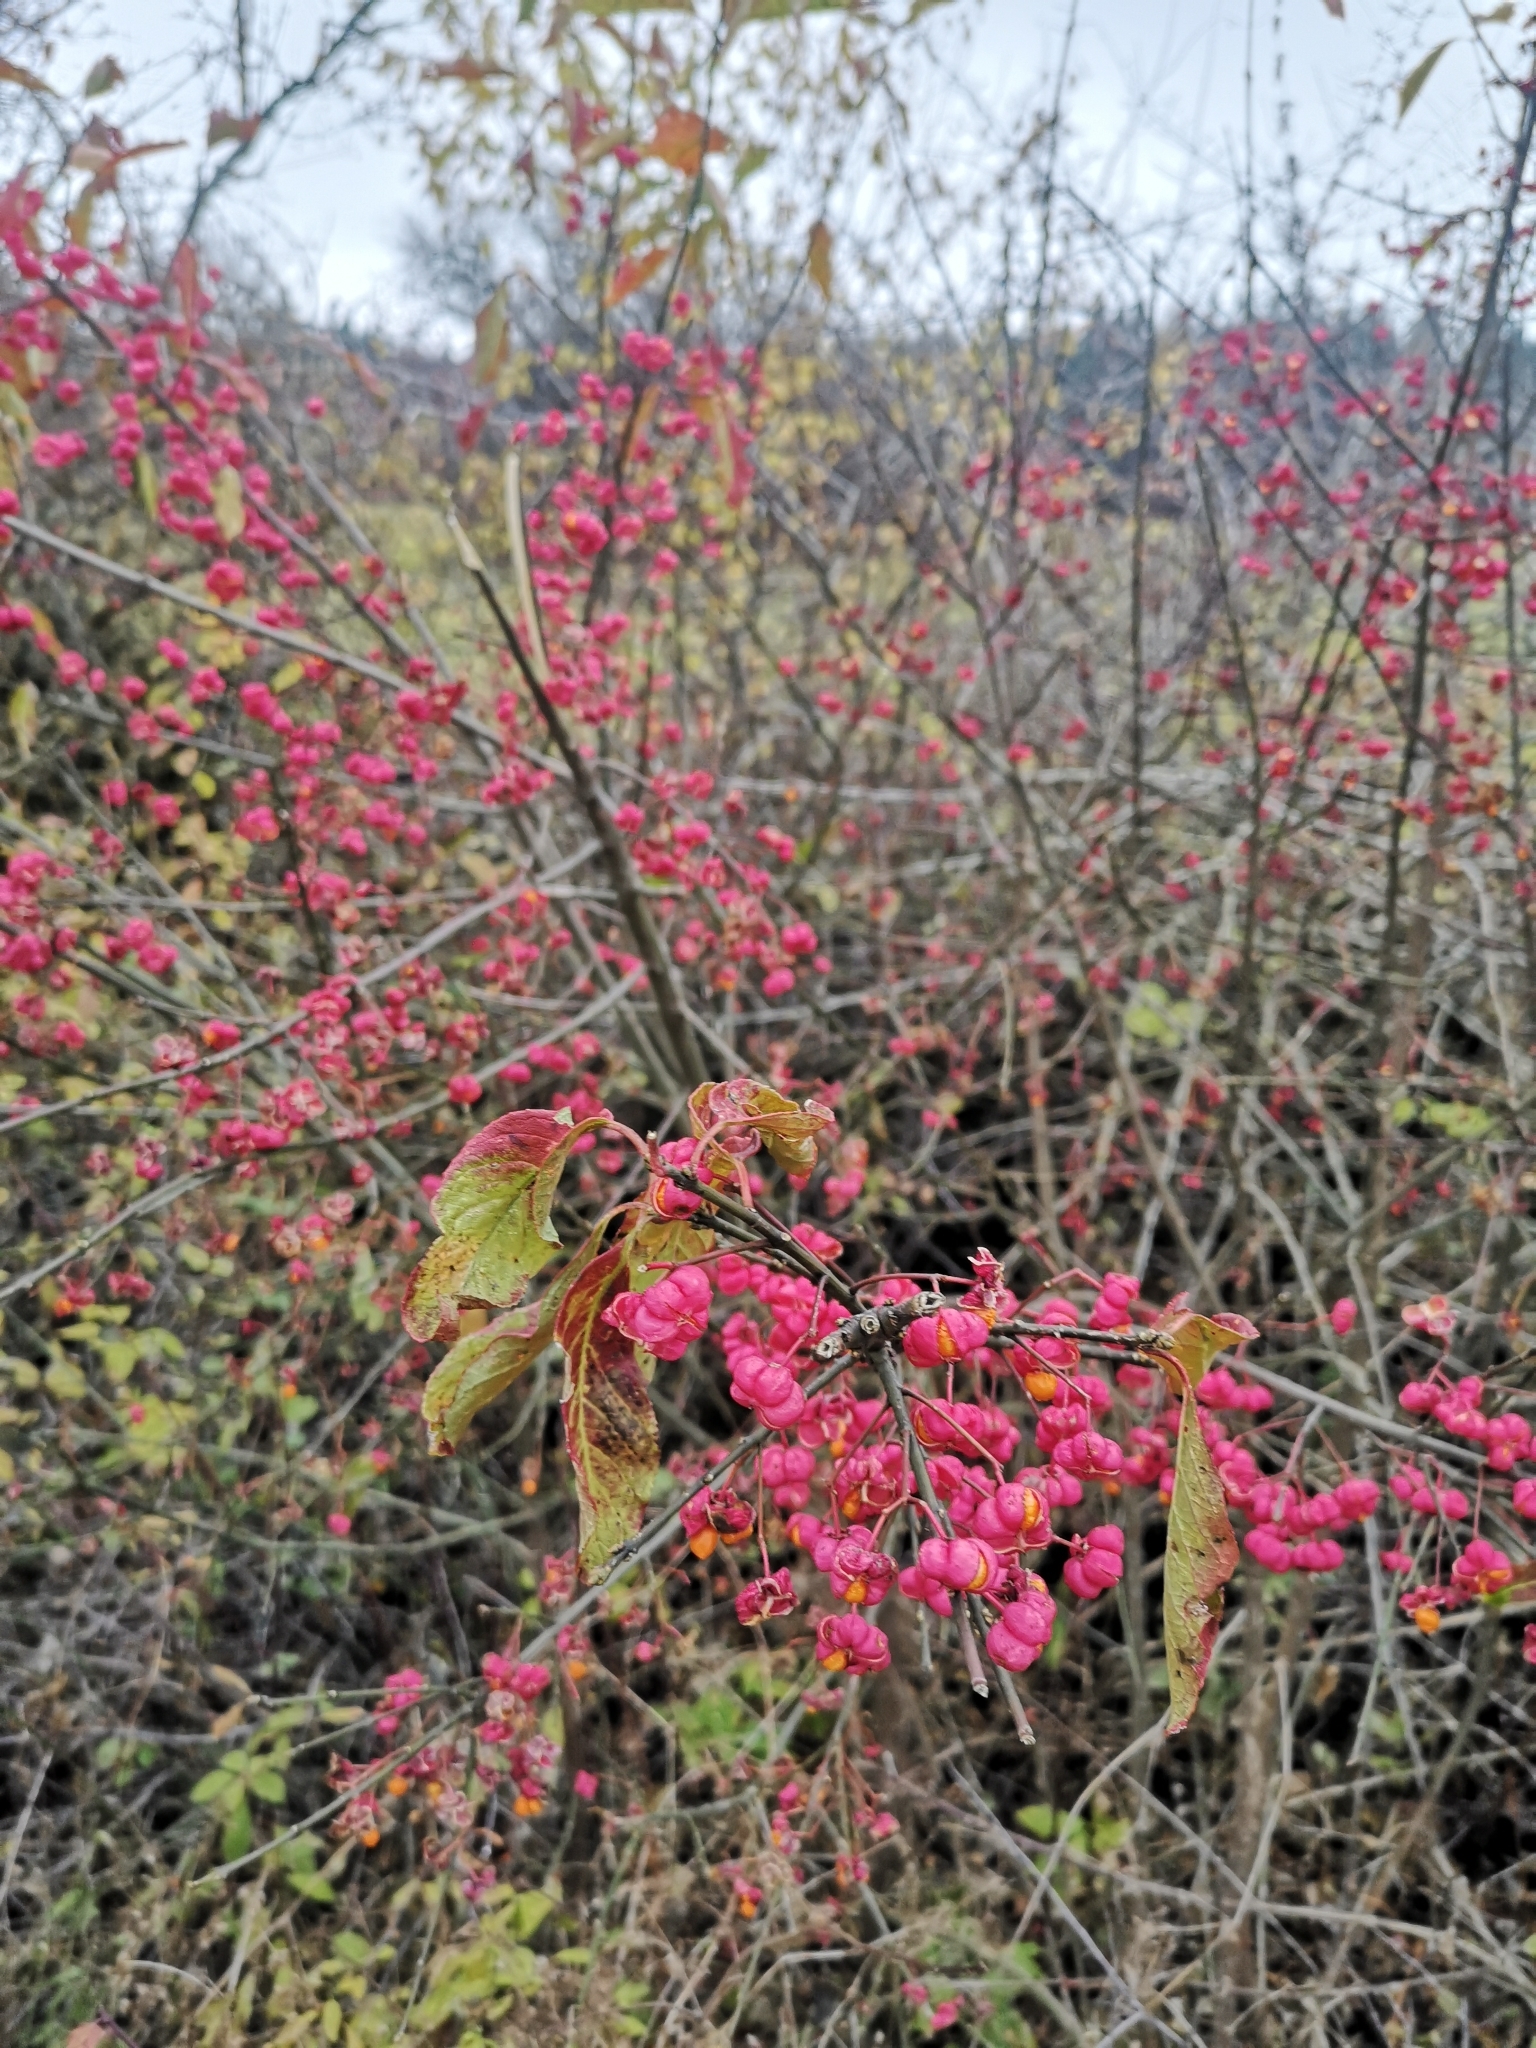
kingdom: Plantae
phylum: Tracheophyta
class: Magnoliopsida
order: Celastrales
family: Celastraceae
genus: Euonymus
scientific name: Euonymus europaeus
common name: Spindle
